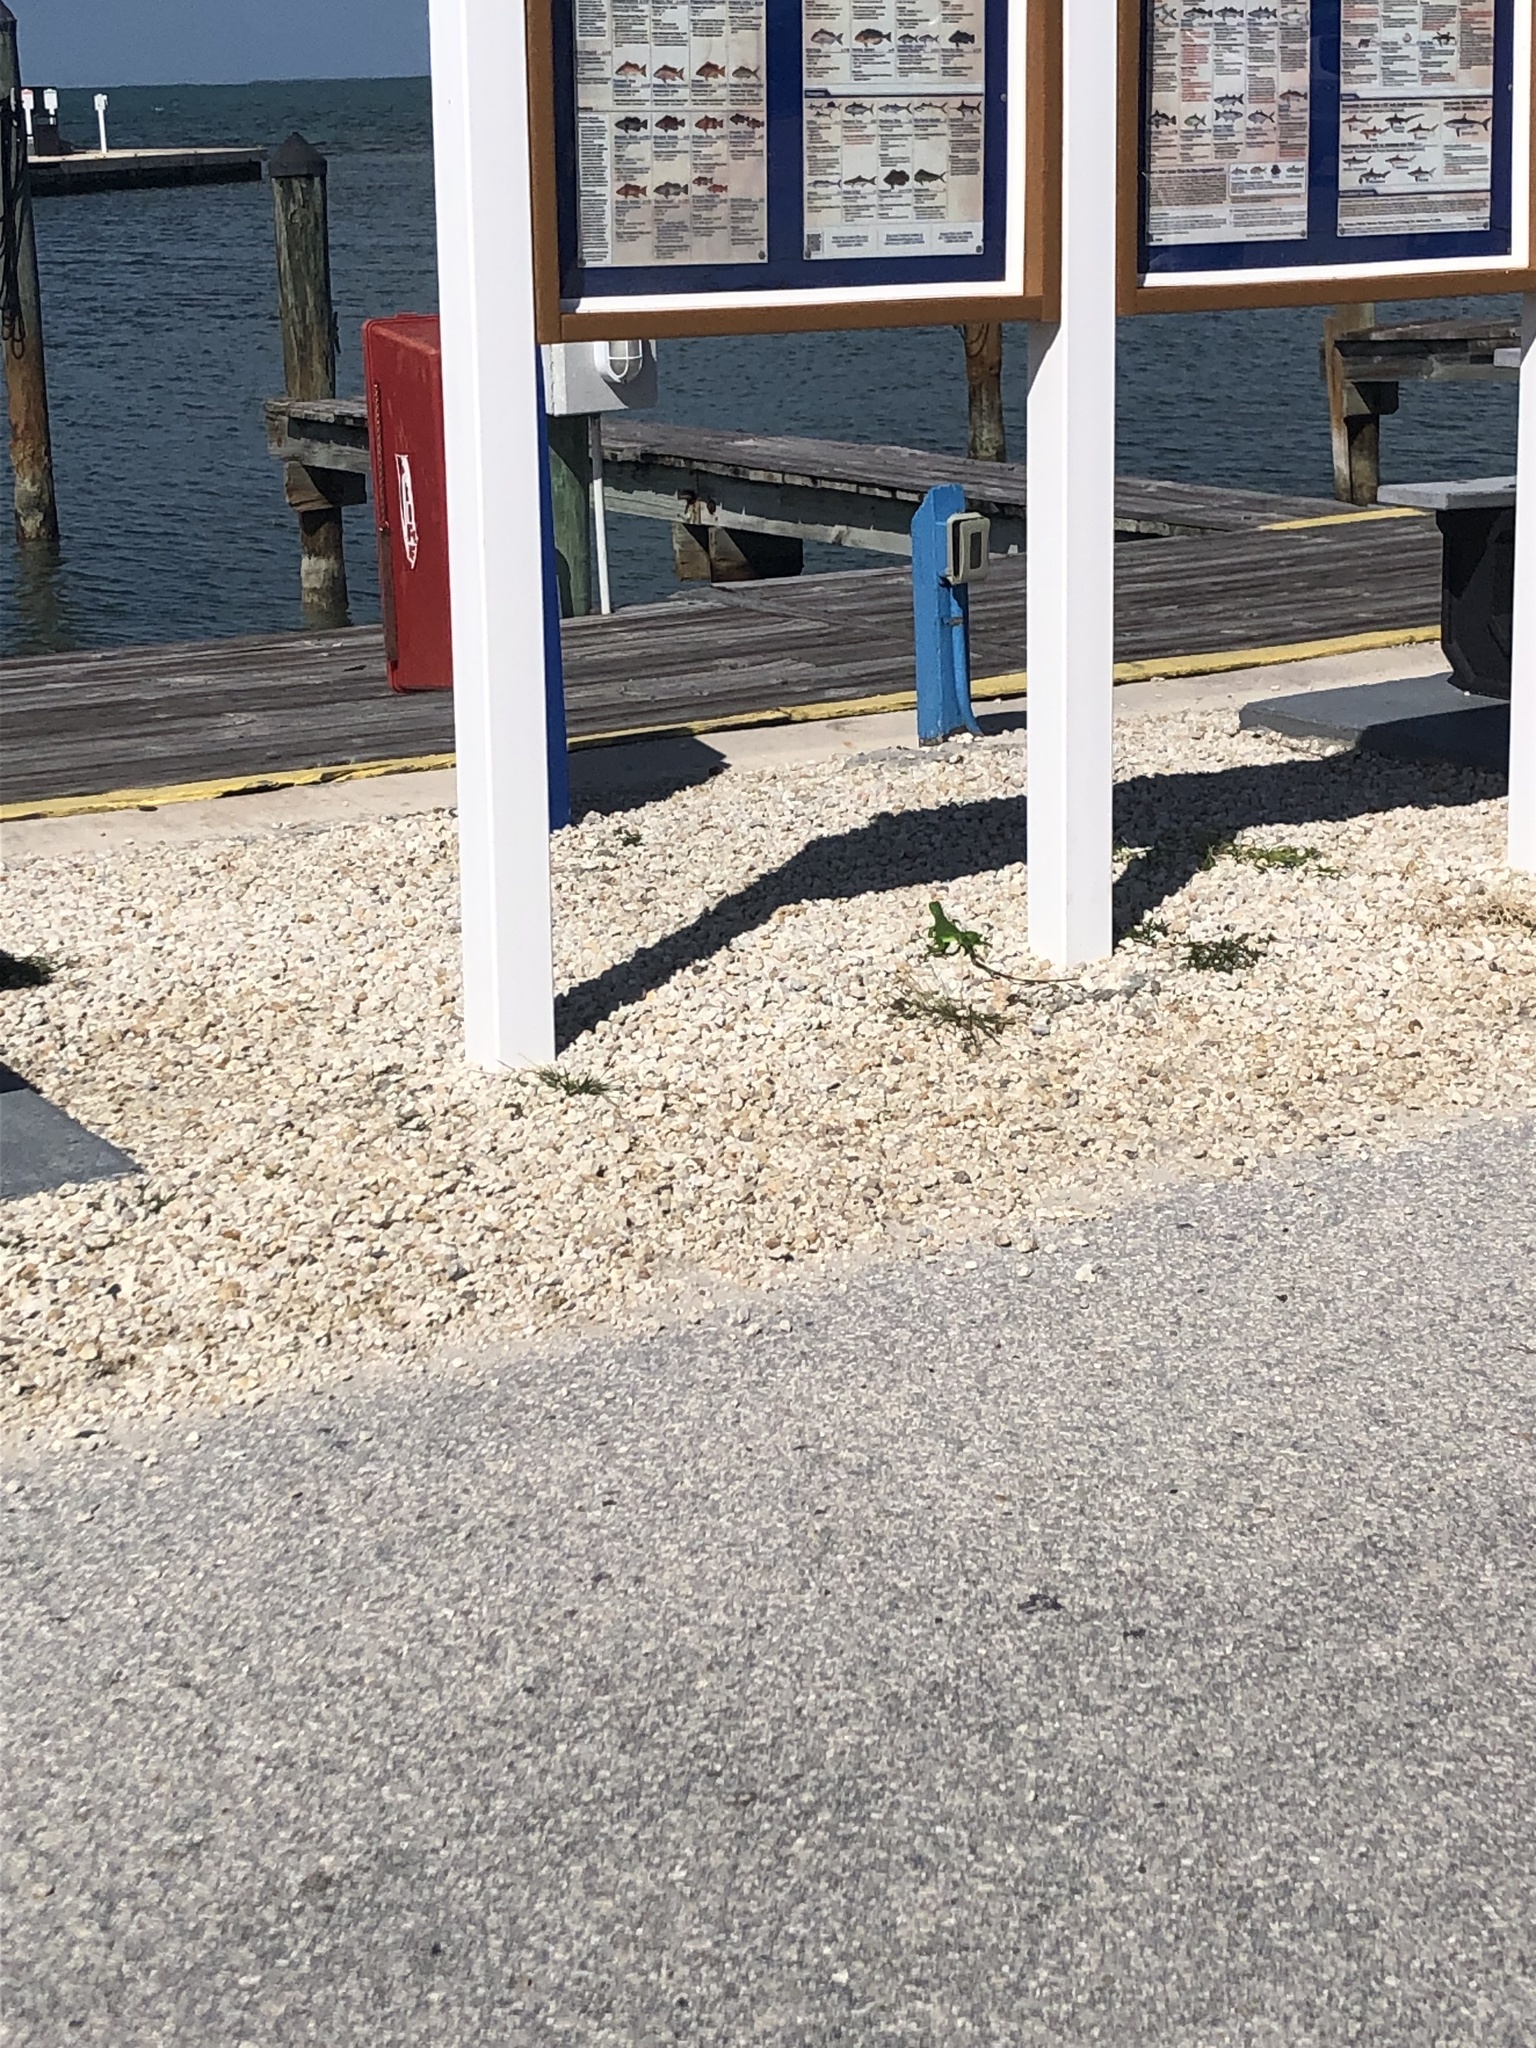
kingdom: Animalia
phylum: Chordata
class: Squamata
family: Iguanidae
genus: Iguana
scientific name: Iguana iguana
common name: Green iguana
